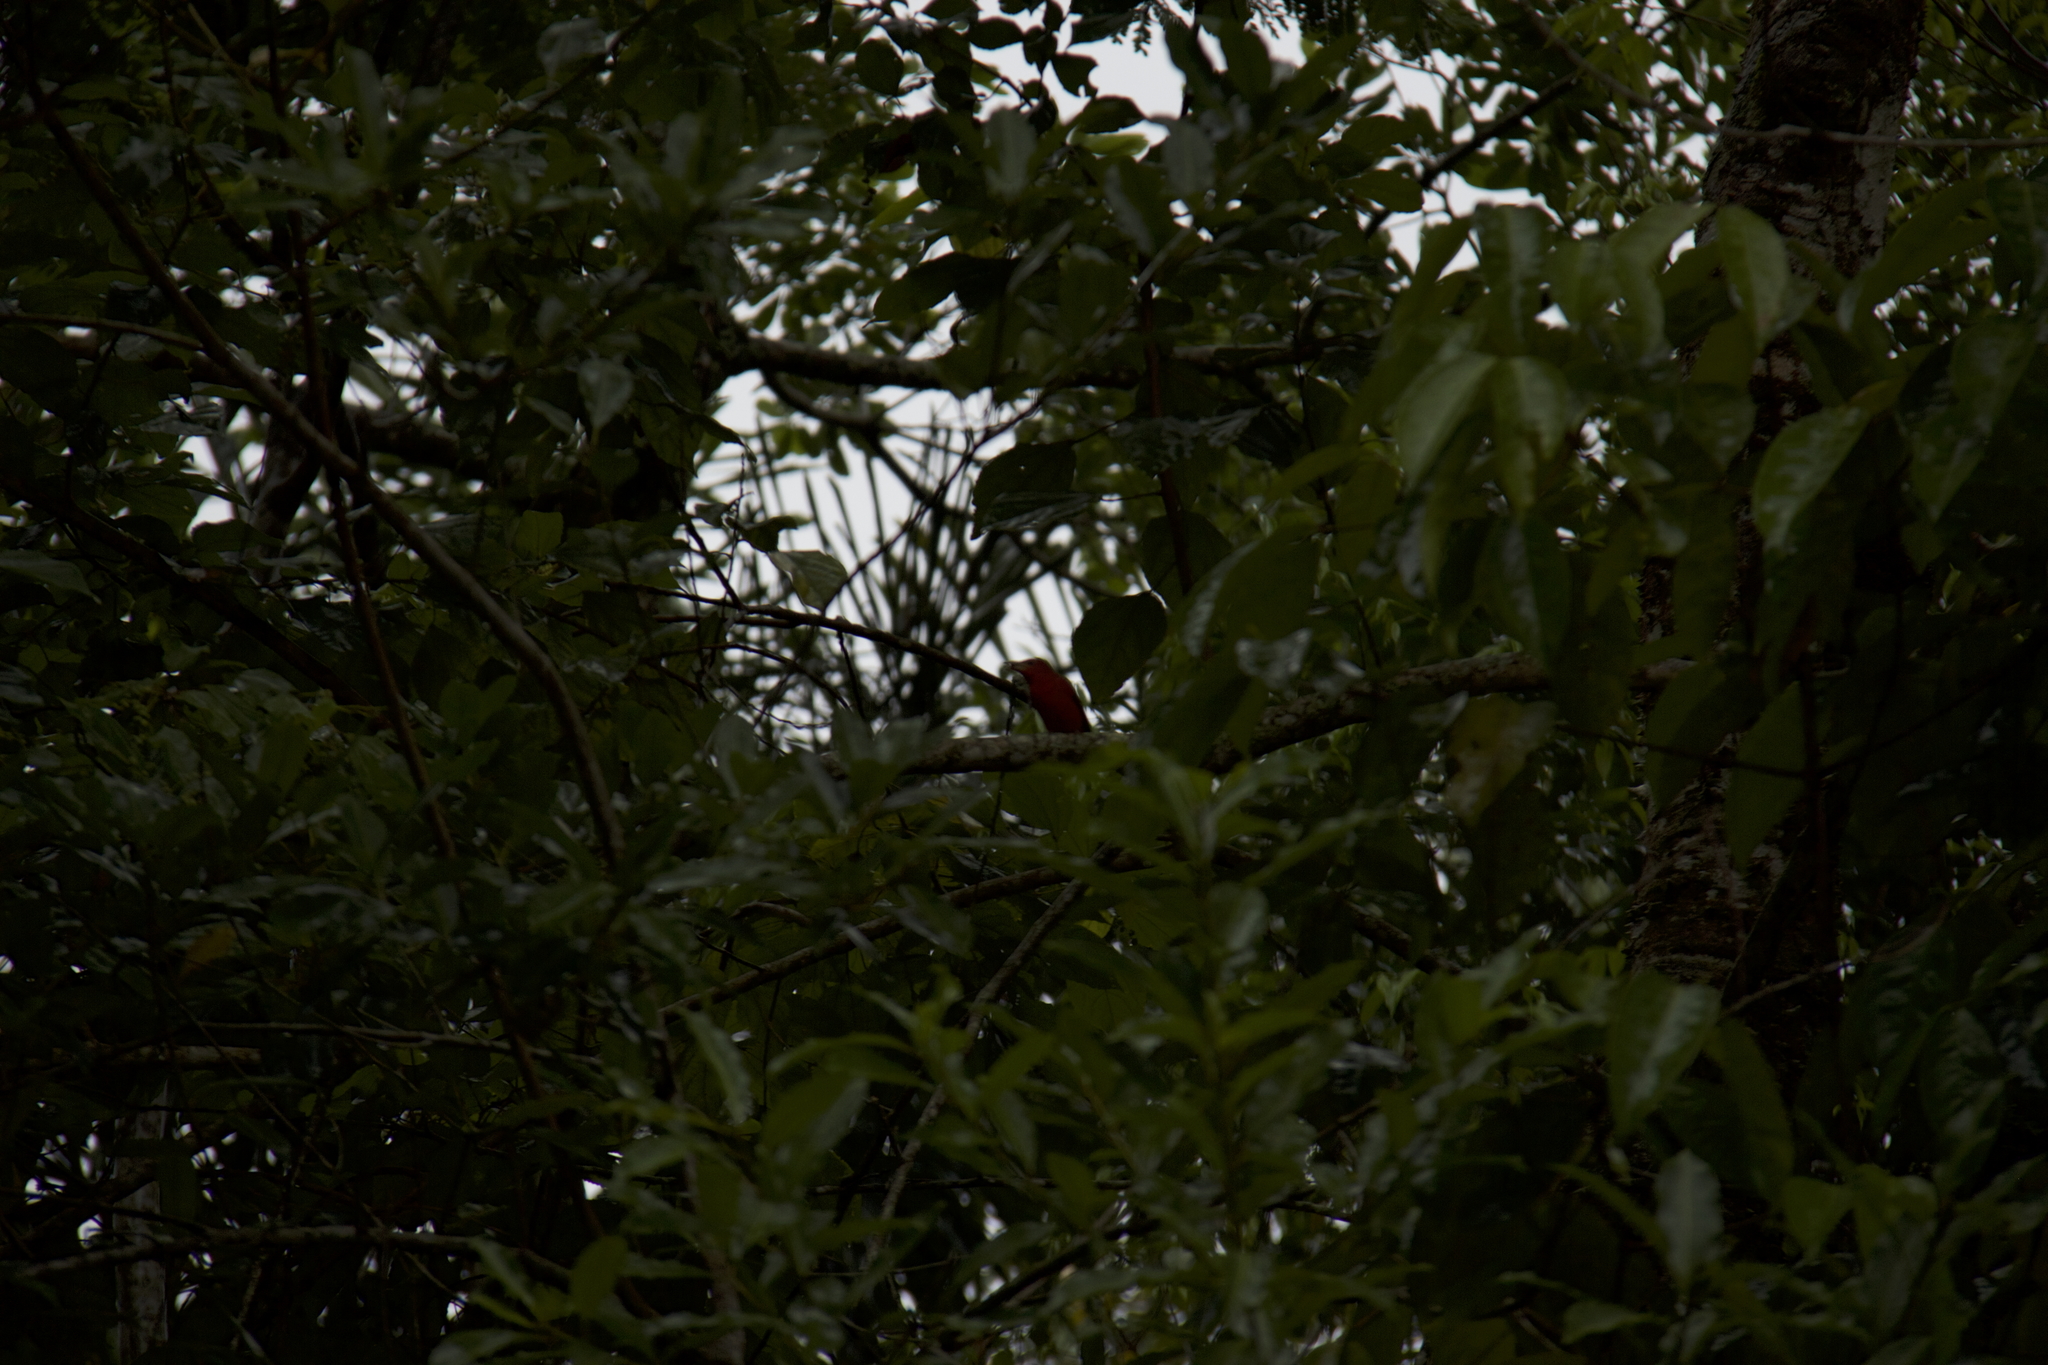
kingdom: Animalia
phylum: Chordata
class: Aves
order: Passeriformes
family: Cardinalidae
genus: Piranga
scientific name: Piranga rubra
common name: Summer tanager
